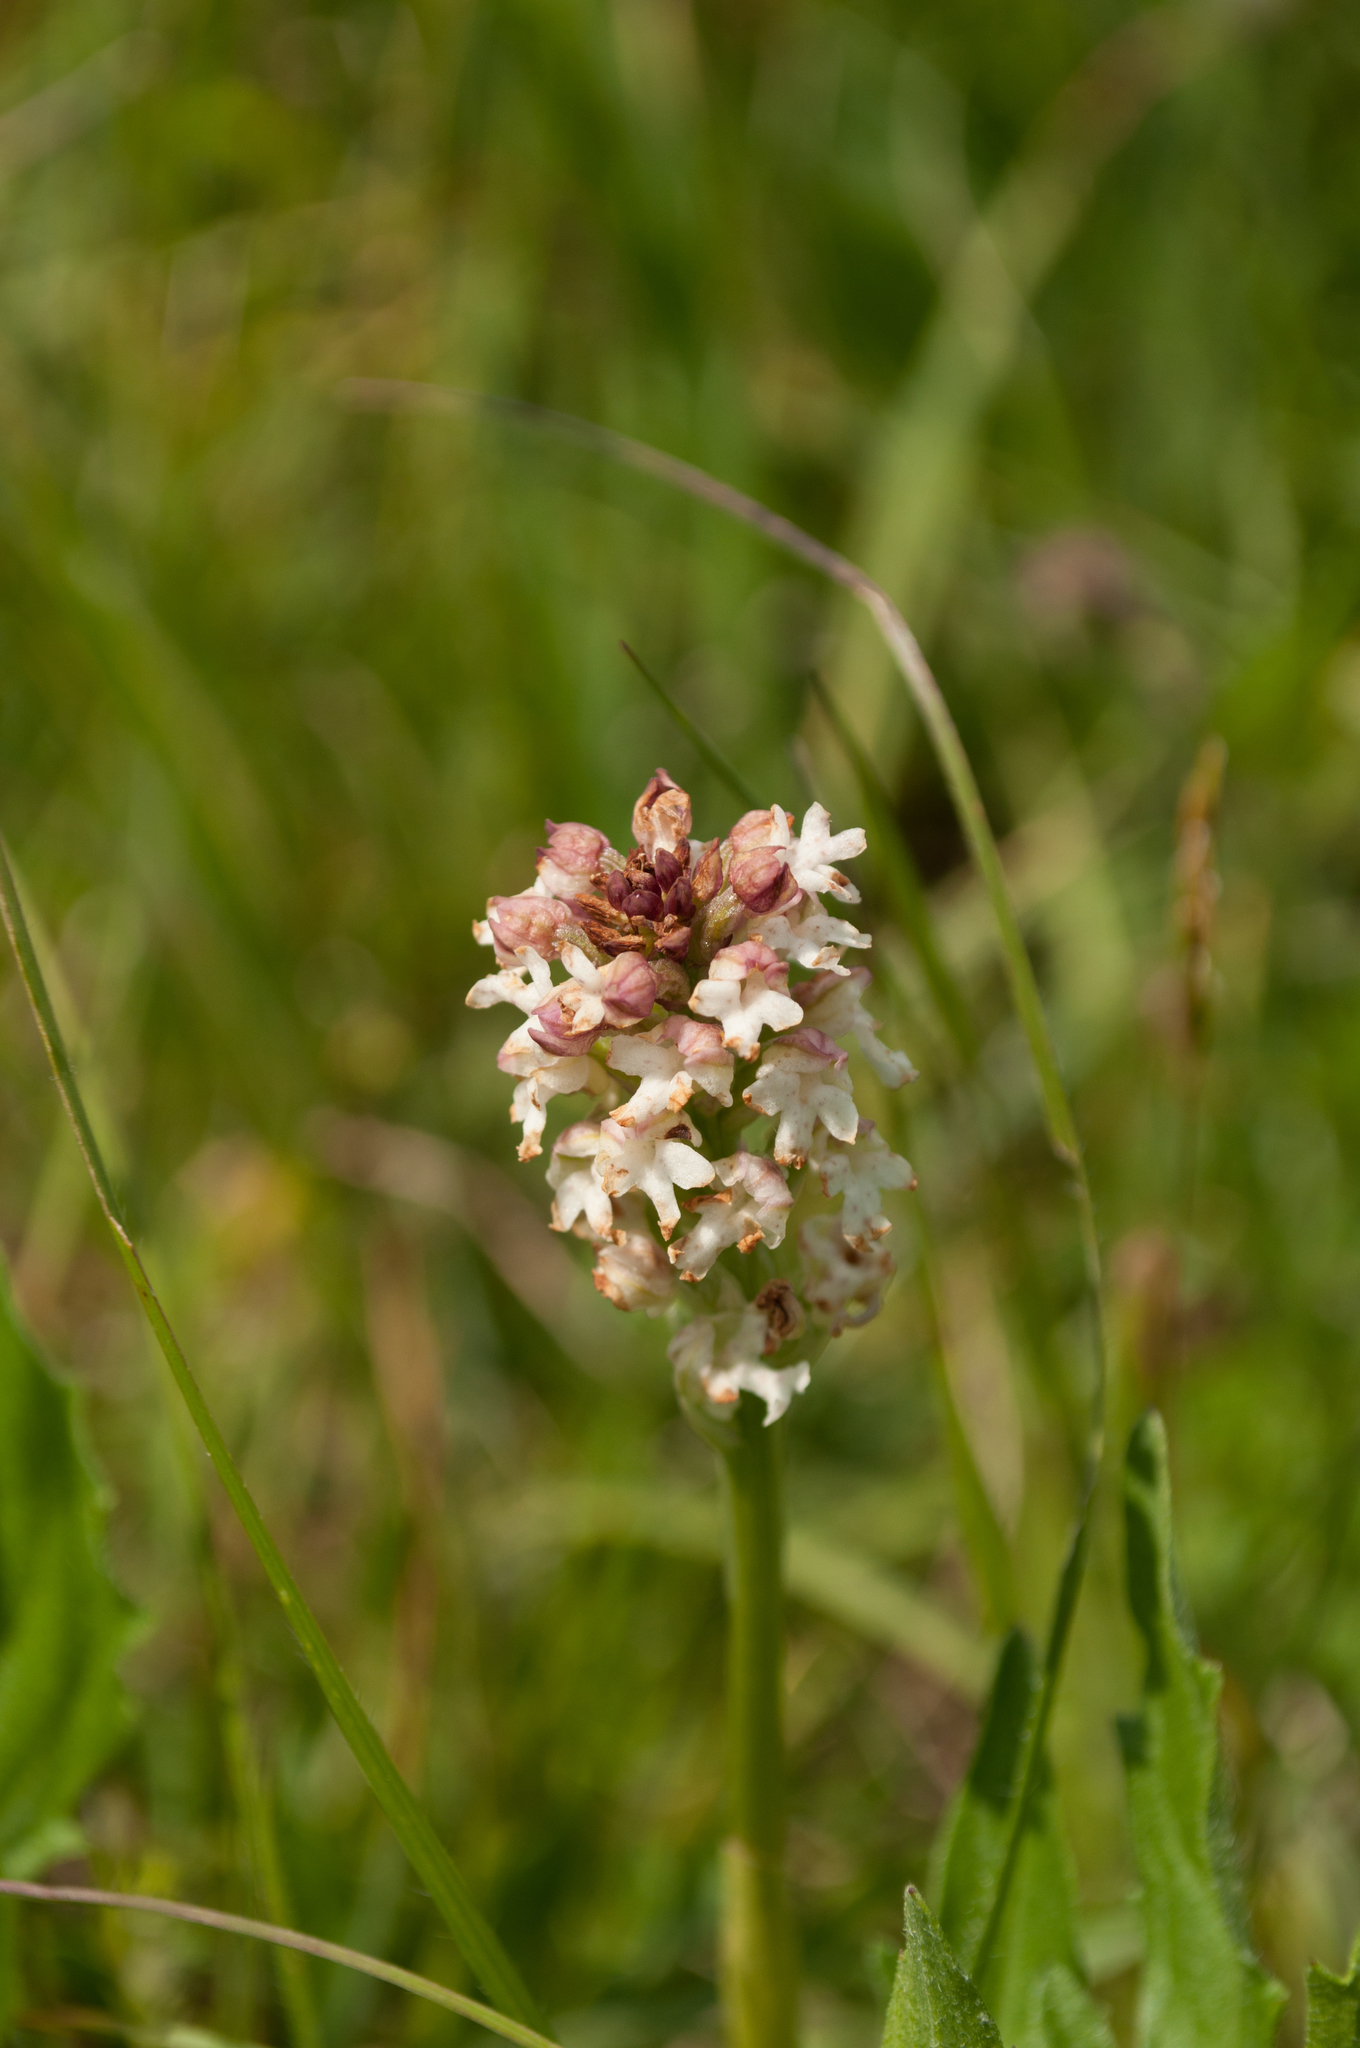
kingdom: Plantae
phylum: Tracheophyta
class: Liliopsida
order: Asparagales
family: Orchidaceae
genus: Neotinea
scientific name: Neotinea ustulata
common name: Burnt orchid
